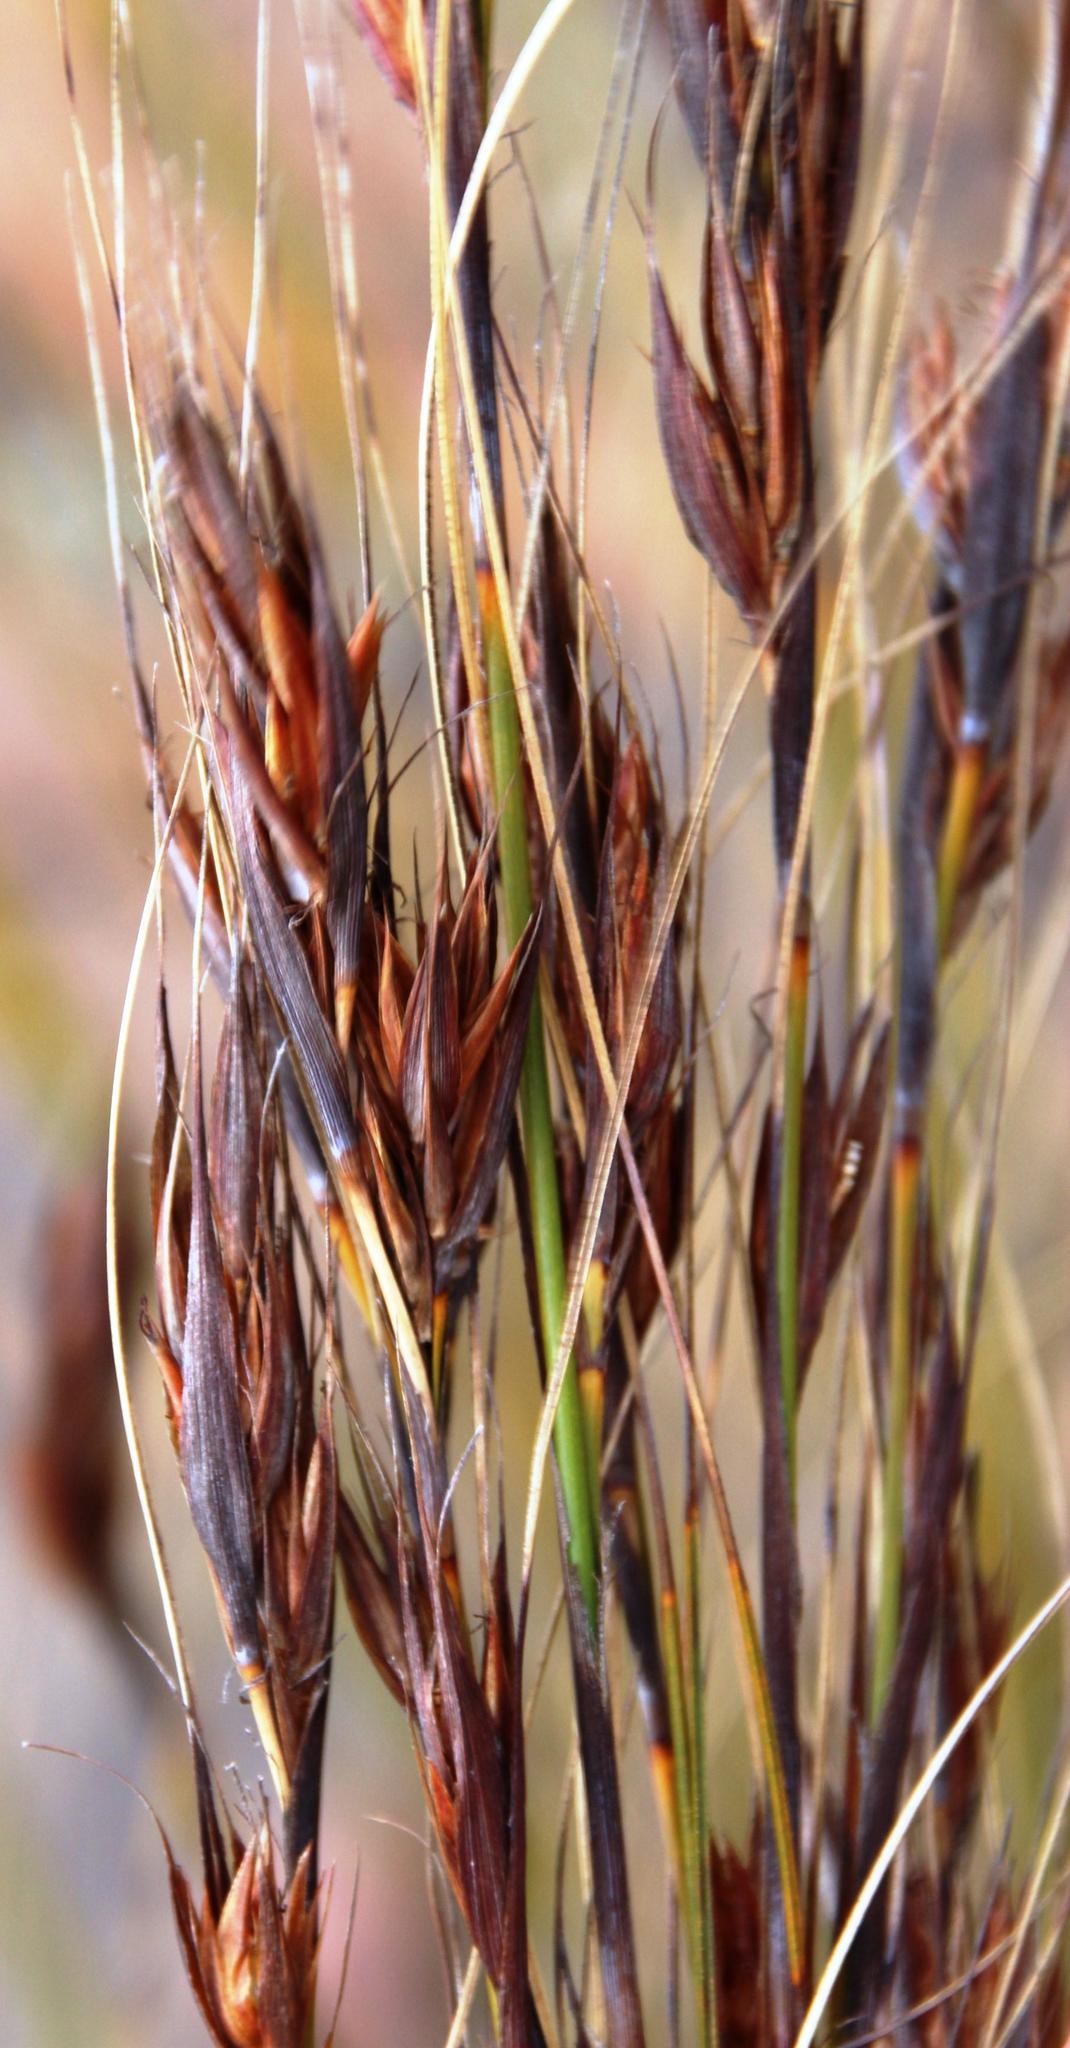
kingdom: Plantae
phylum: Tracheophyta
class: Liliopsida
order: Poales
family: Cyperaceae
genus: Tetraria
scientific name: Tetraria ustulata
